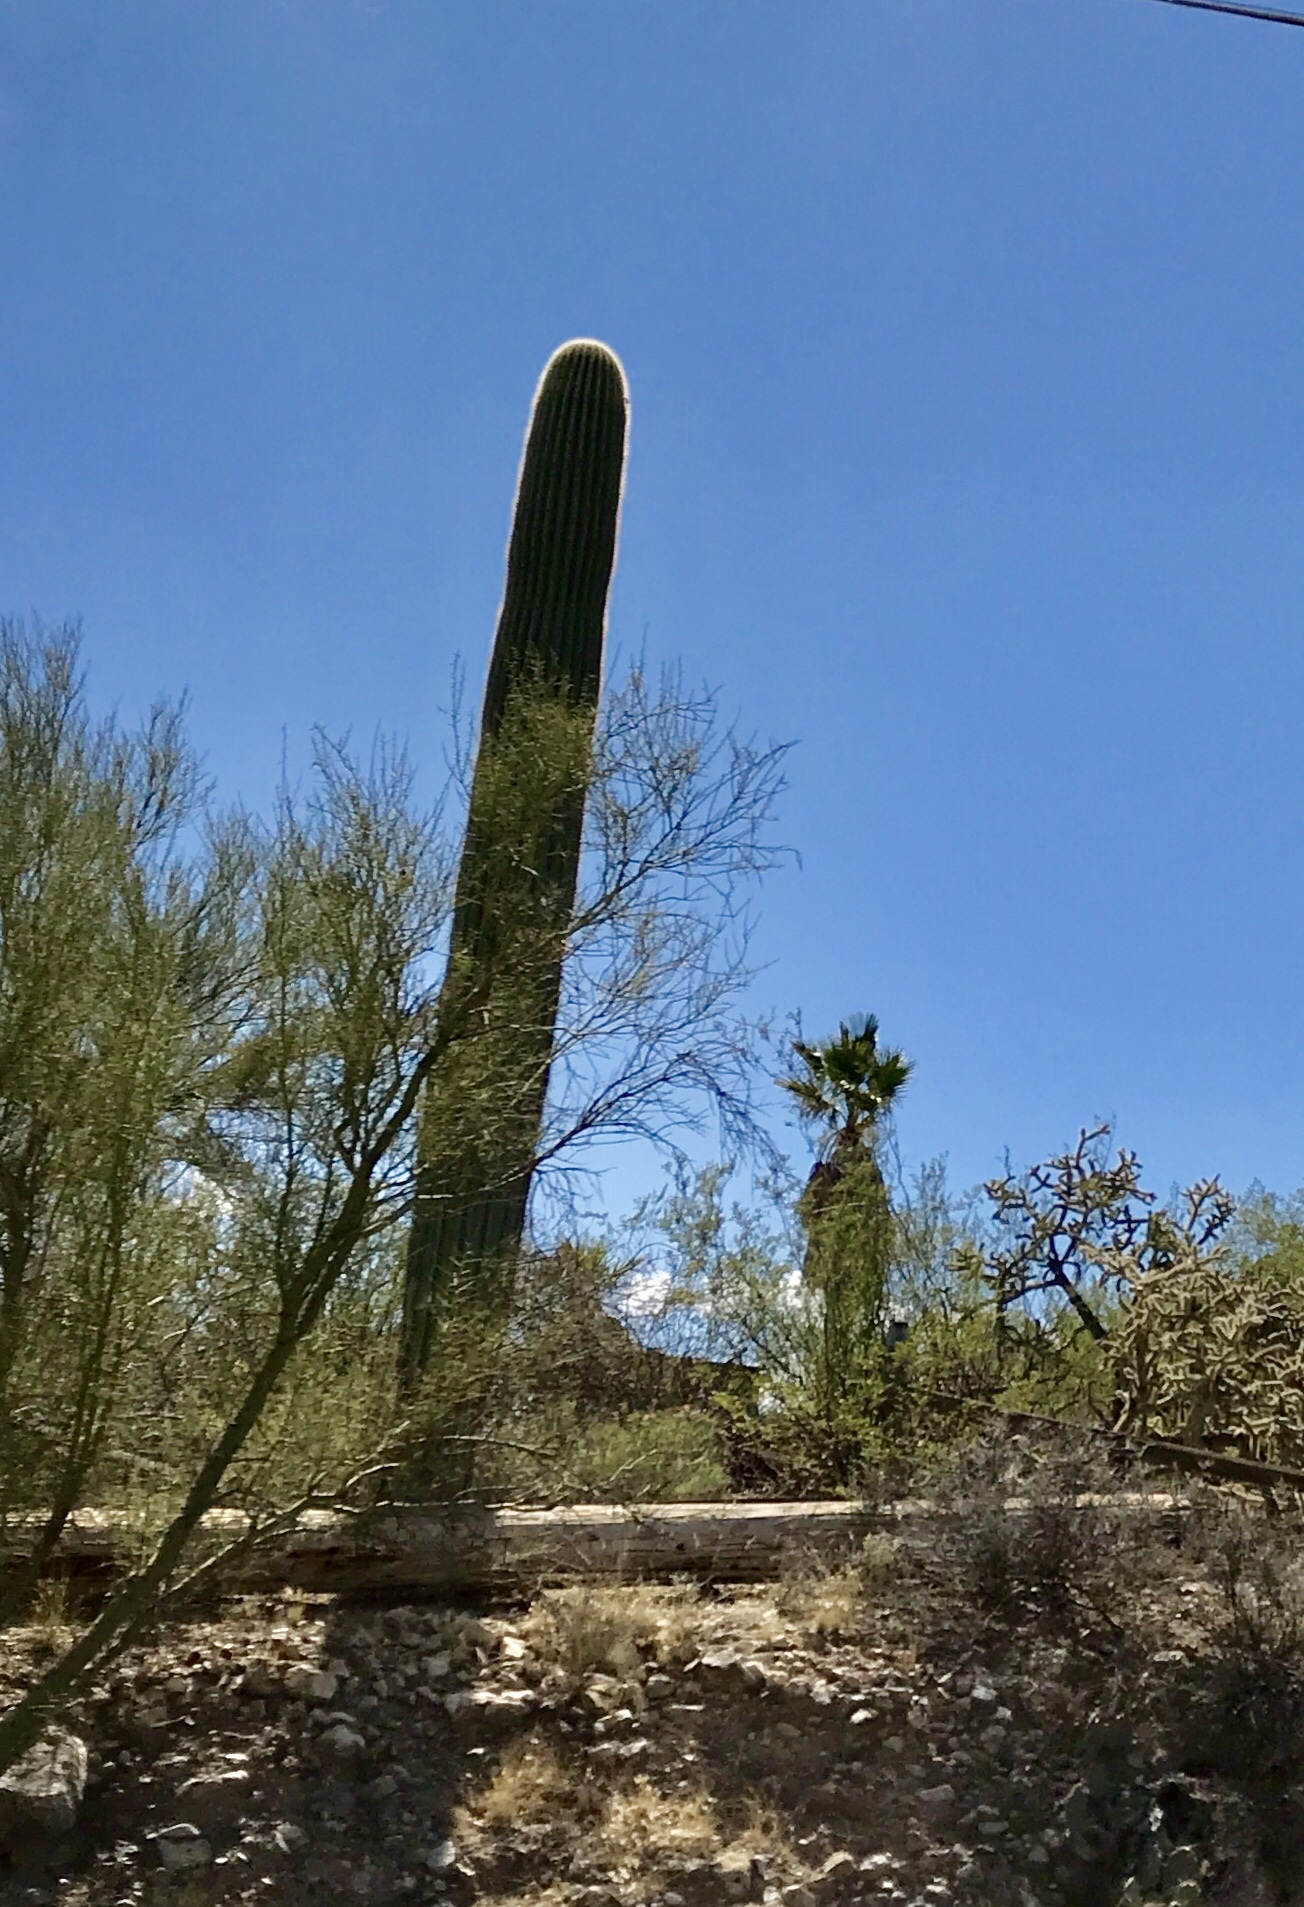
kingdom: Plantae
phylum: Tracheophyta
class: Magnoliopsida
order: Caryophyllales
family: Cactaceae
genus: Carnegiea
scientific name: Carnegiea gigantea
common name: Saguaro
